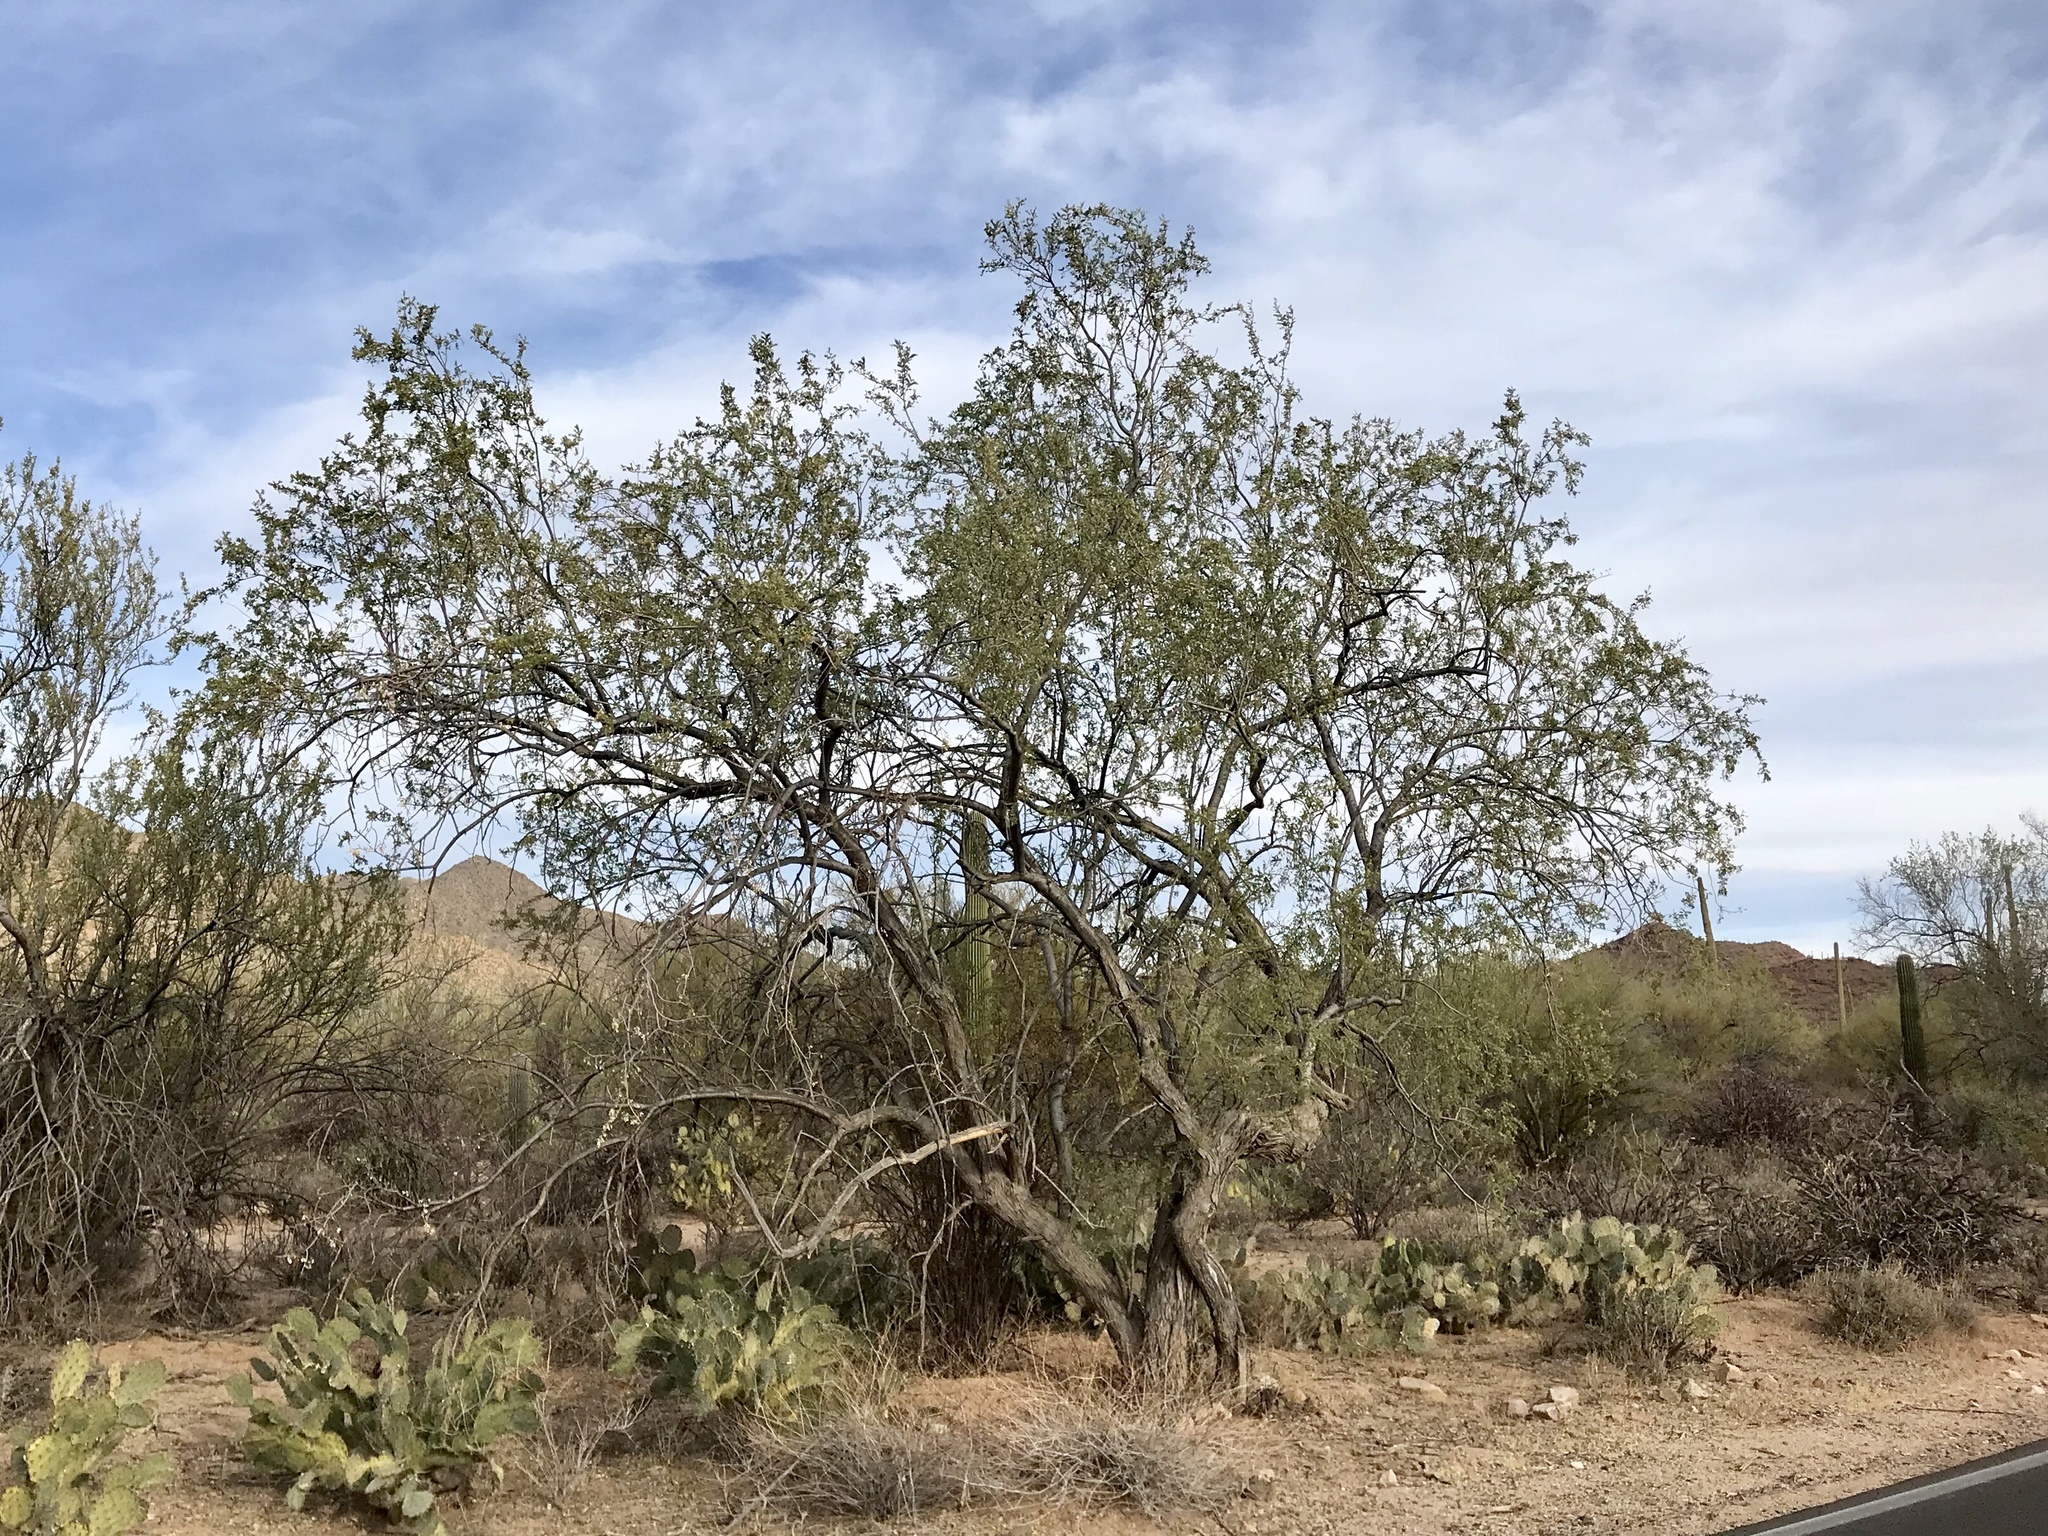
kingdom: Plantae
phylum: Tracheophyta
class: Magnoliopsida
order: Fabales
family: Fabaceae
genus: Olneya
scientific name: Olneya tesota
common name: Desert ironwood
